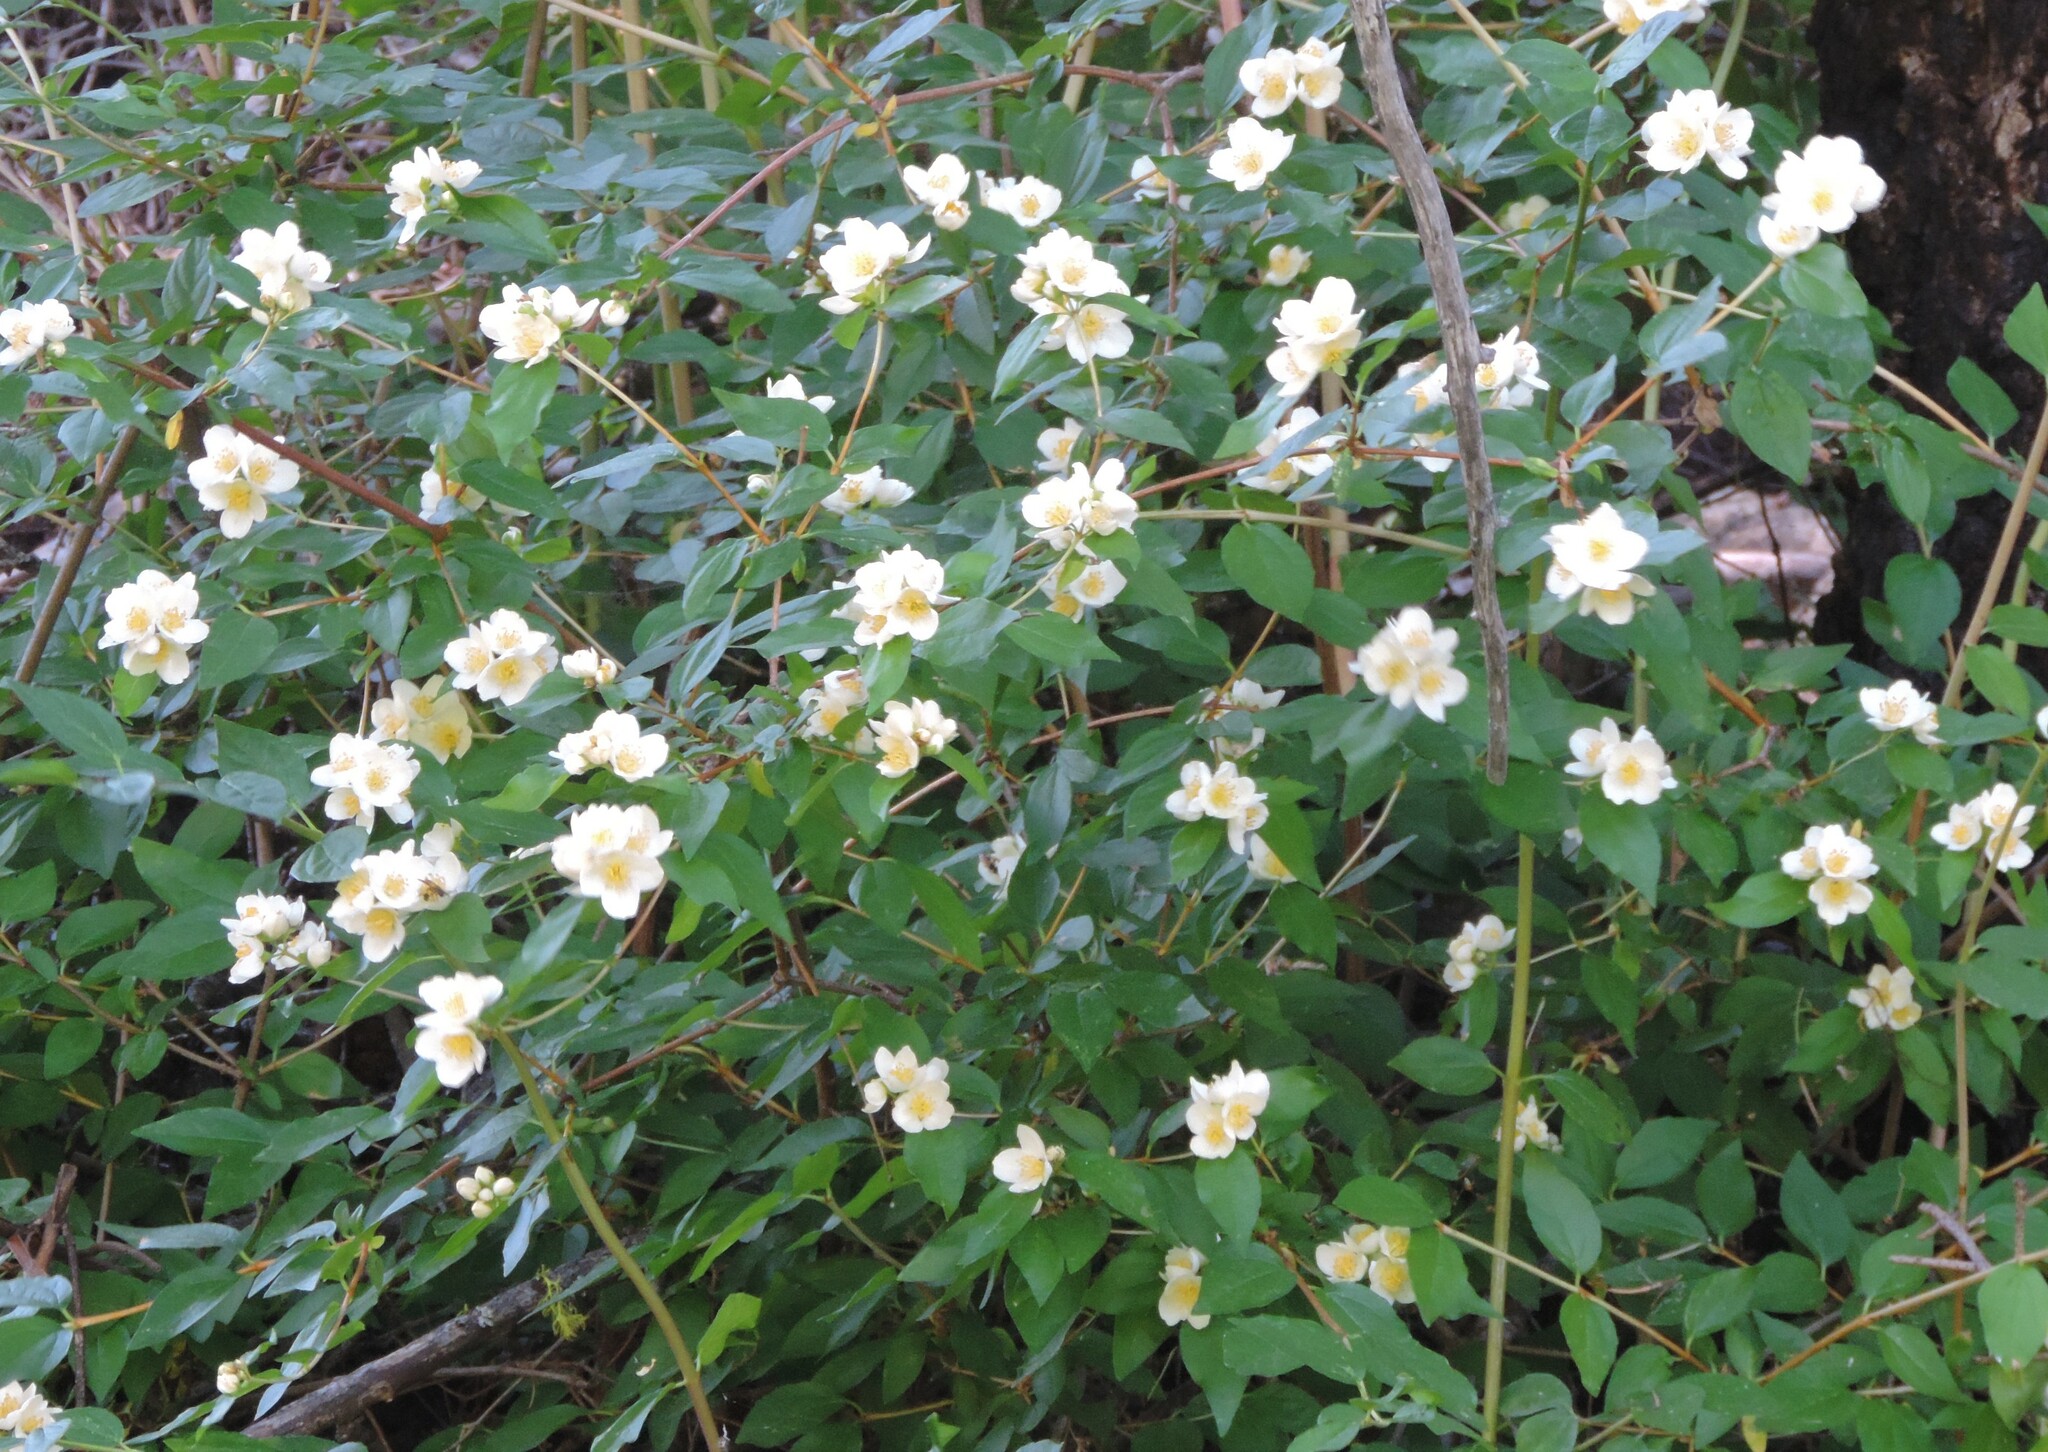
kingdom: Plantae
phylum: Tracheophyta
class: Magnoliopsida
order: Cornales
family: Hydrangeaceae
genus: Philadelphus
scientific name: Philadelphus lewisii
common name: Lewis's mock orange
